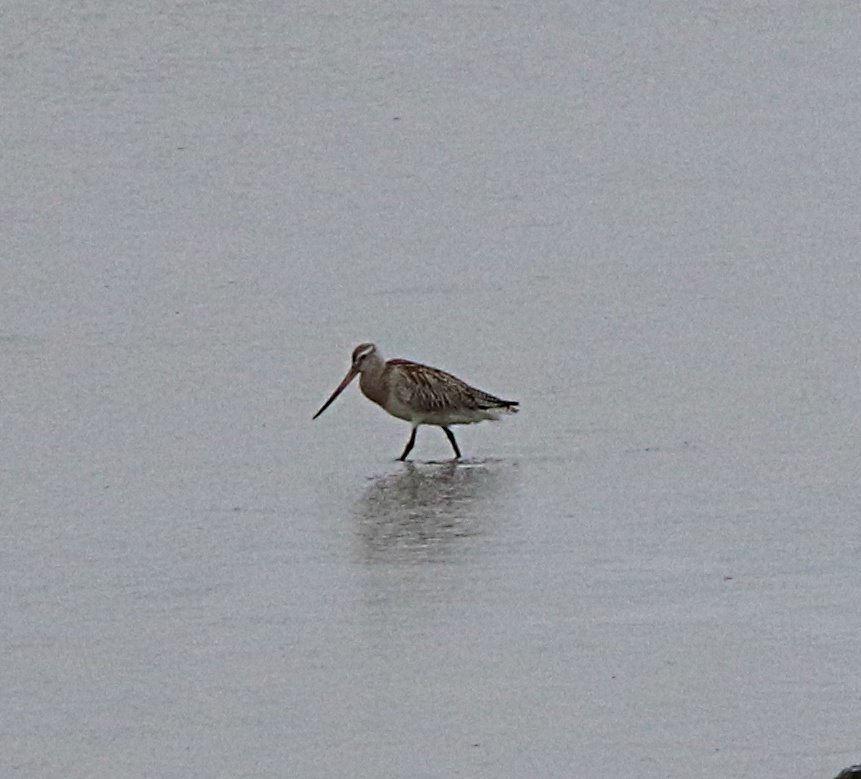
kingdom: Animalia
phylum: Chordata
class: Aves
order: Charadriiformes
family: Scolopacidae
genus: Limosa
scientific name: Limosa lapponica
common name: Bar-tailed godwit
